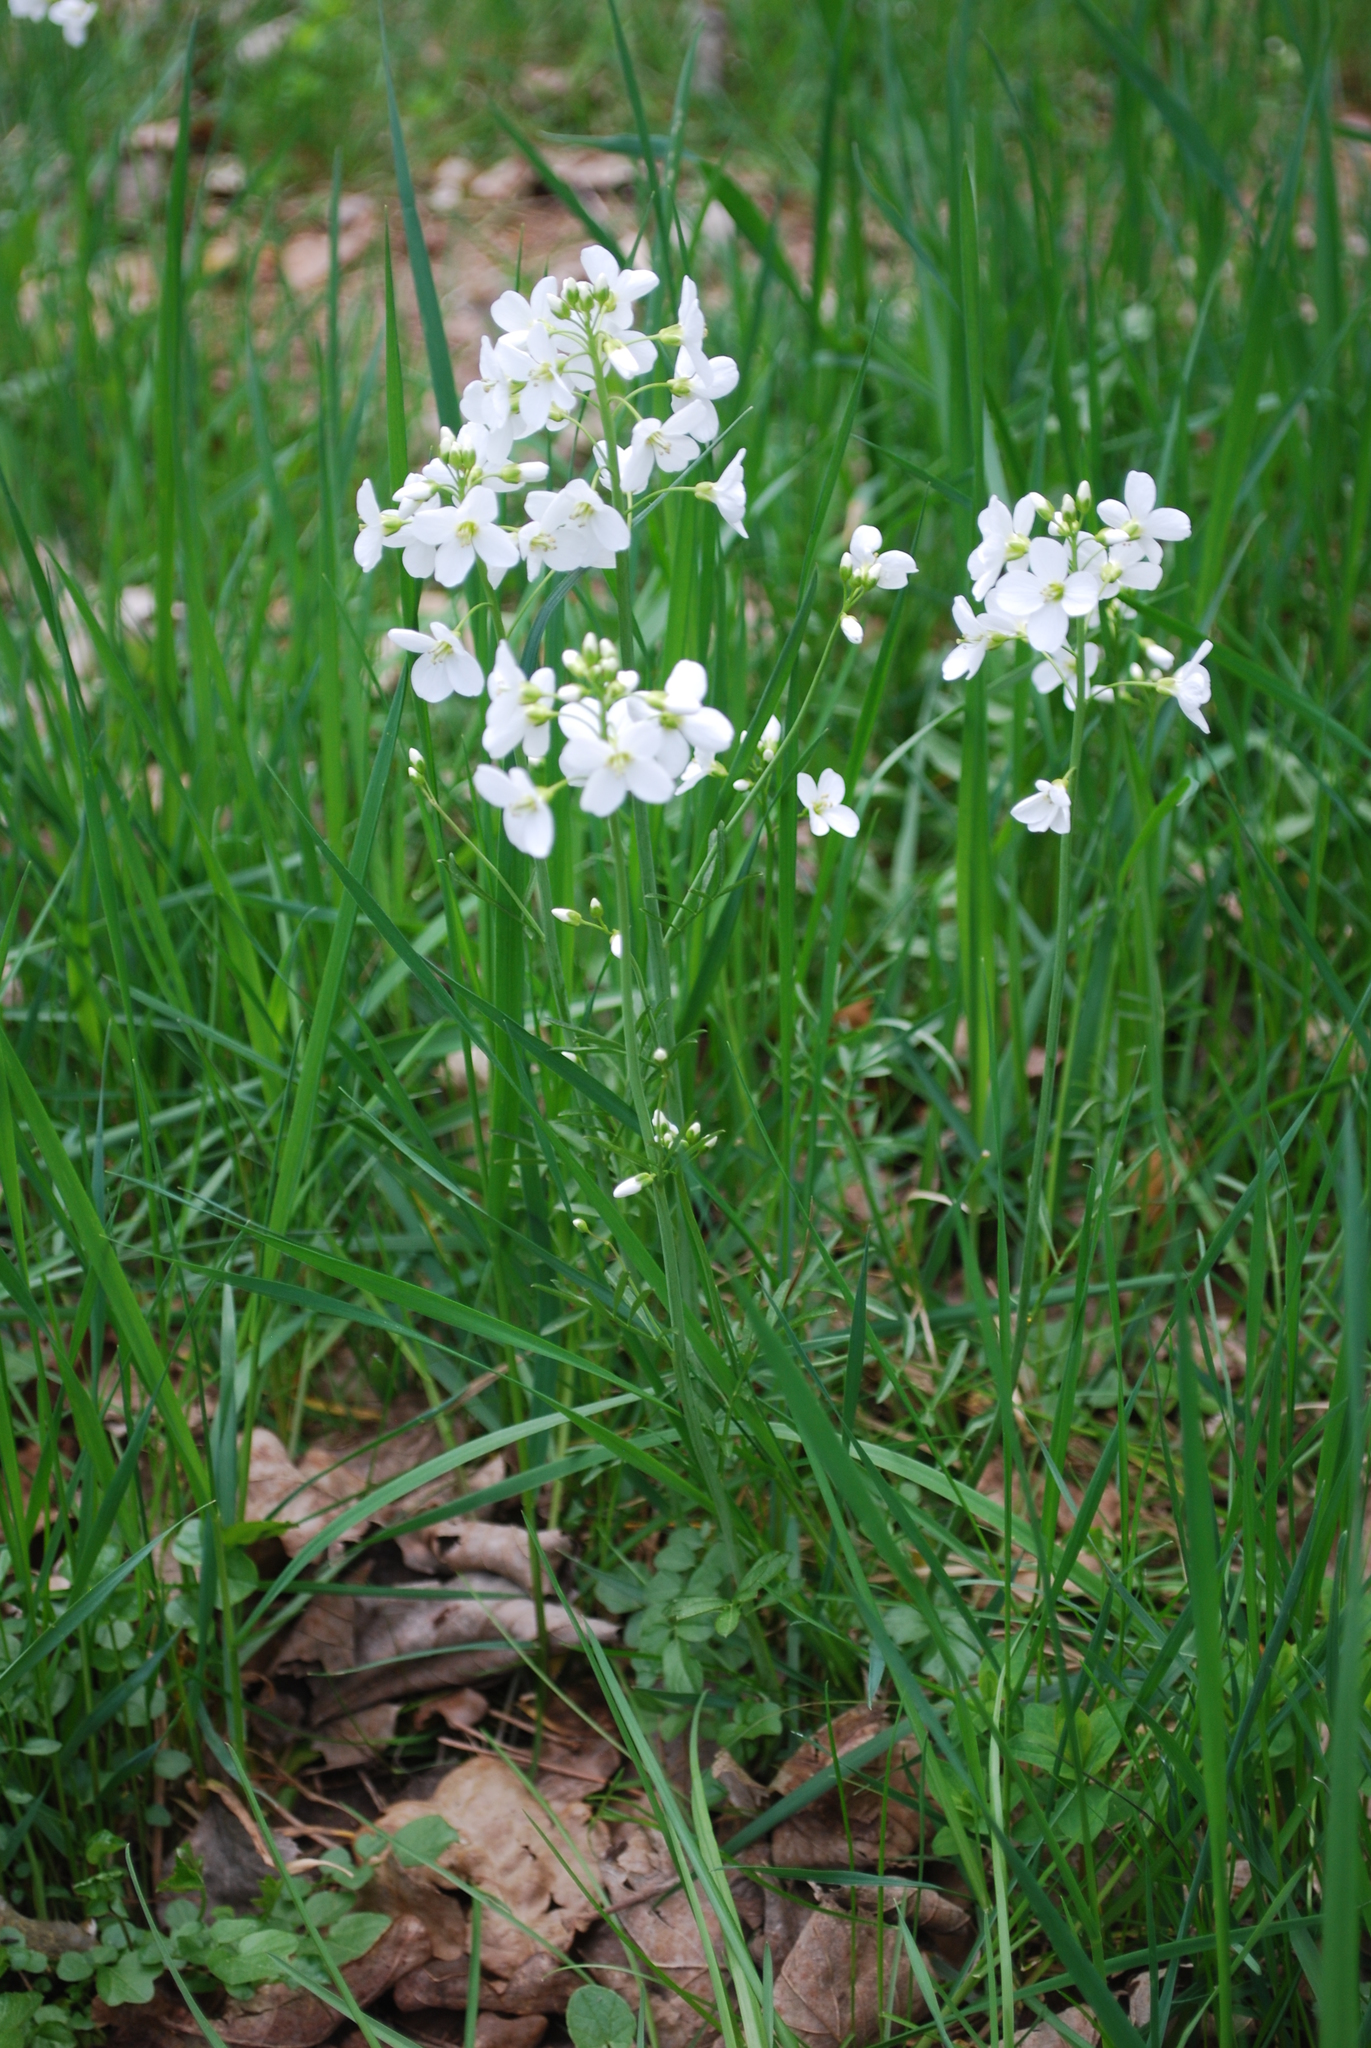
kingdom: Plantae
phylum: Tracheophyta
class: Magnoliopsida
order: Brassicales
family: Brassicaceae
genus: Cardamine
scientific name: Cardamine pratensis
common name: Cuckoo flower
